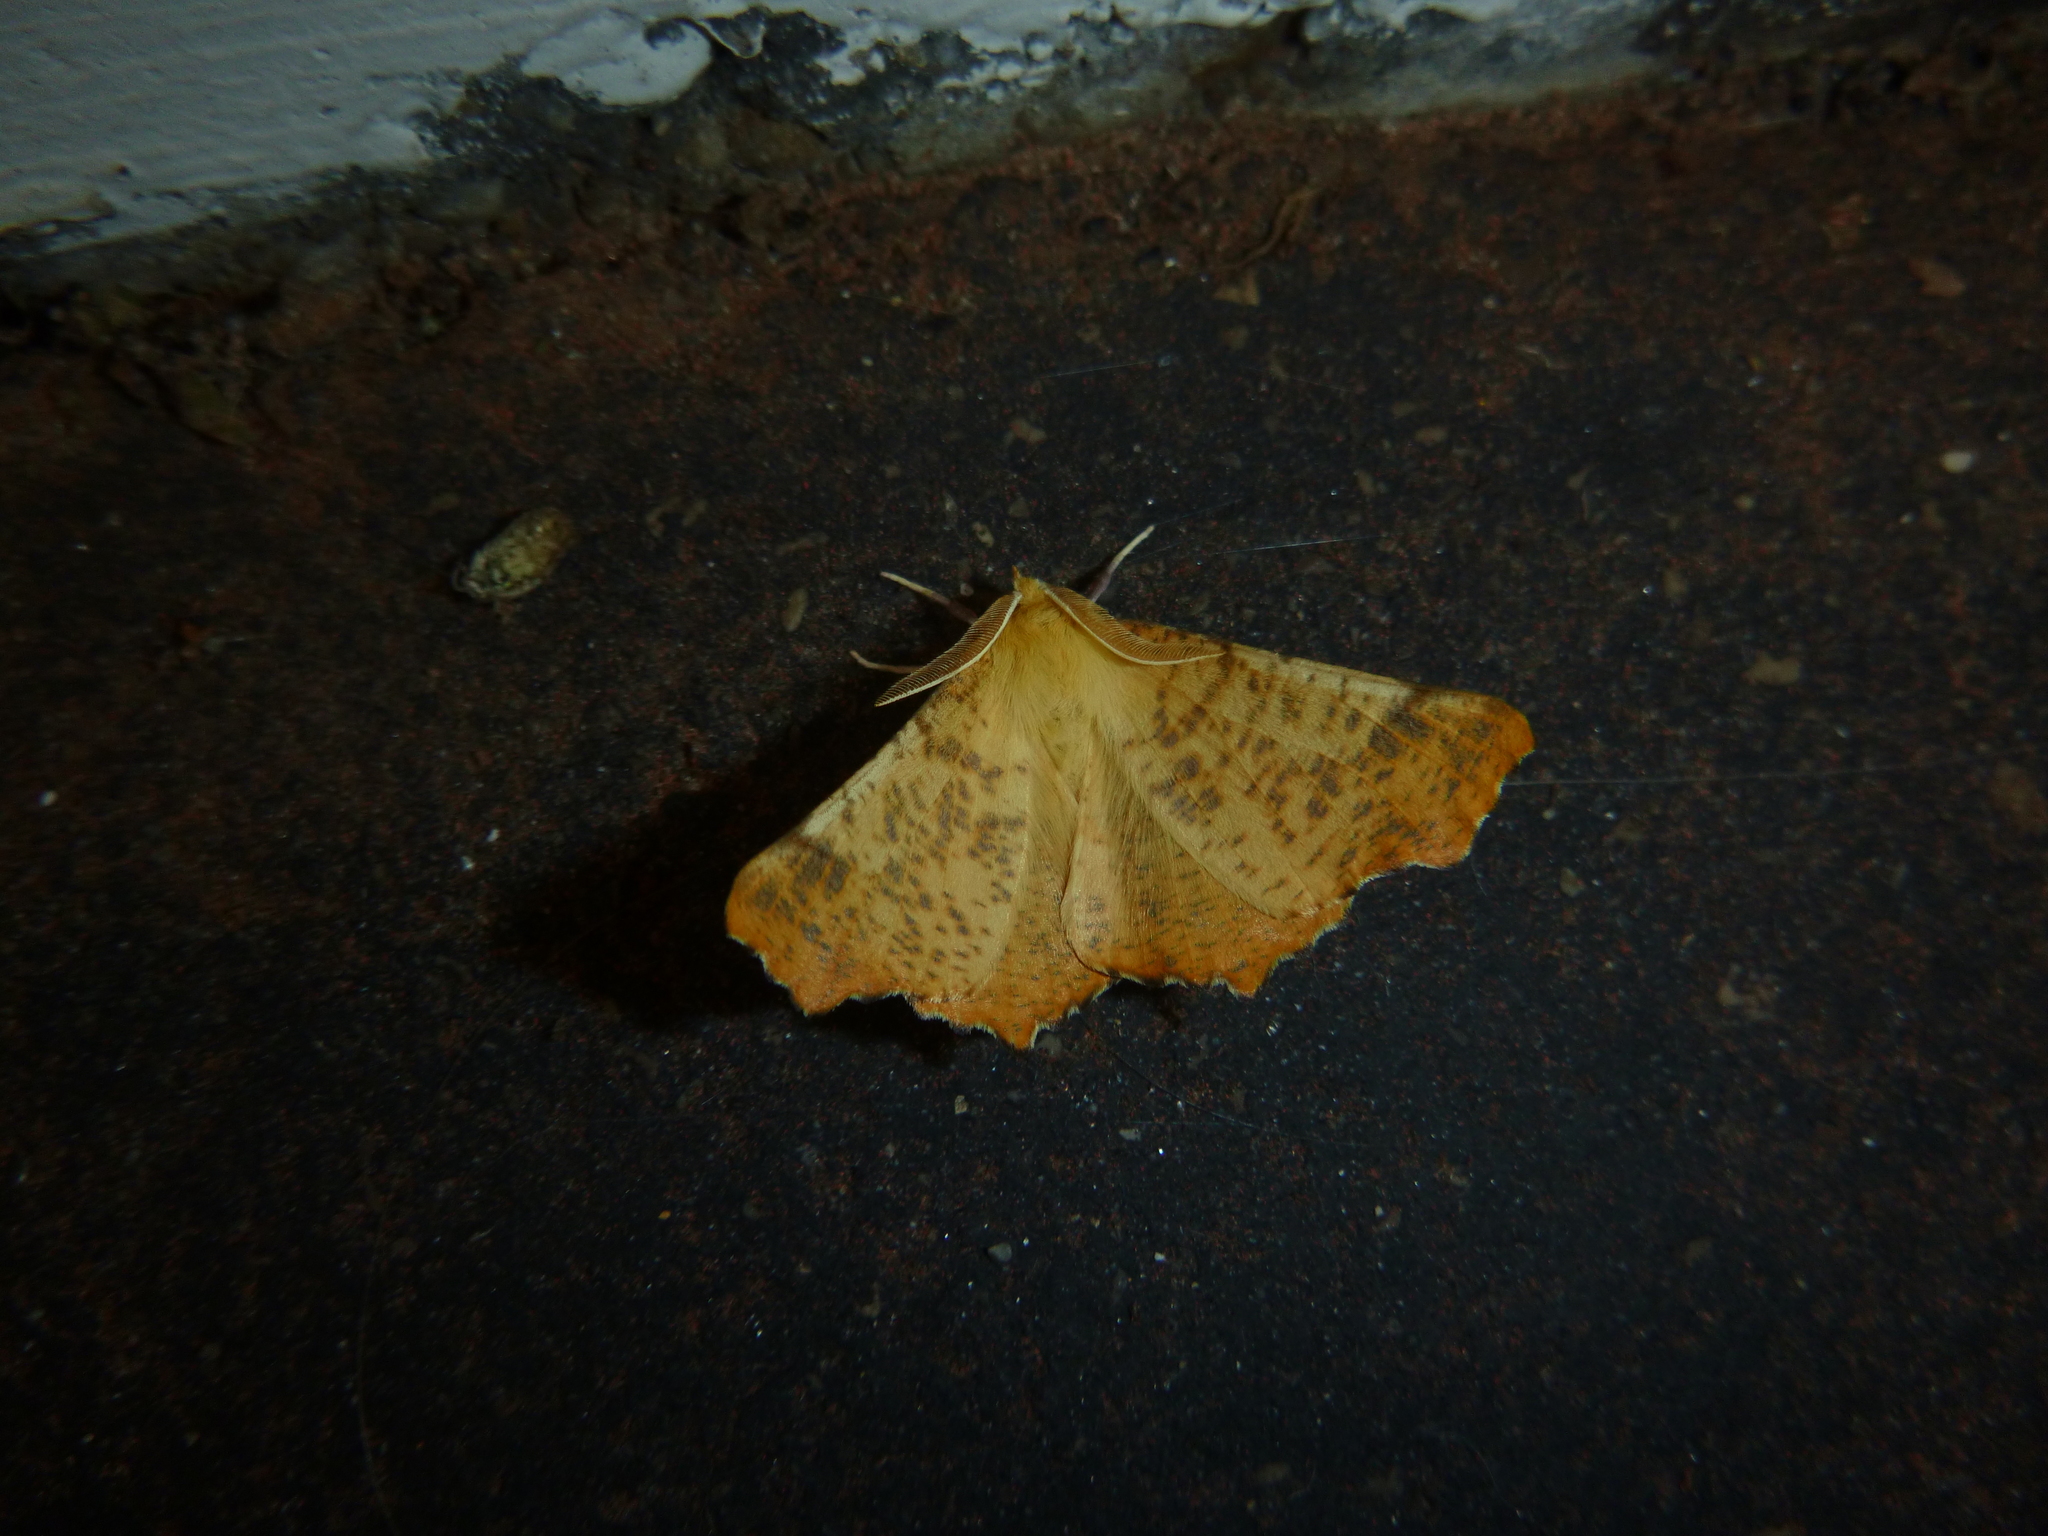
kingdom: Animalia
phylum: Arthropoda
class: Insecta
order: Lepidoptera
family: Geometridae
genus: Ennomos
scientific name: Ennomos autumnaria
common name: Large thorn
